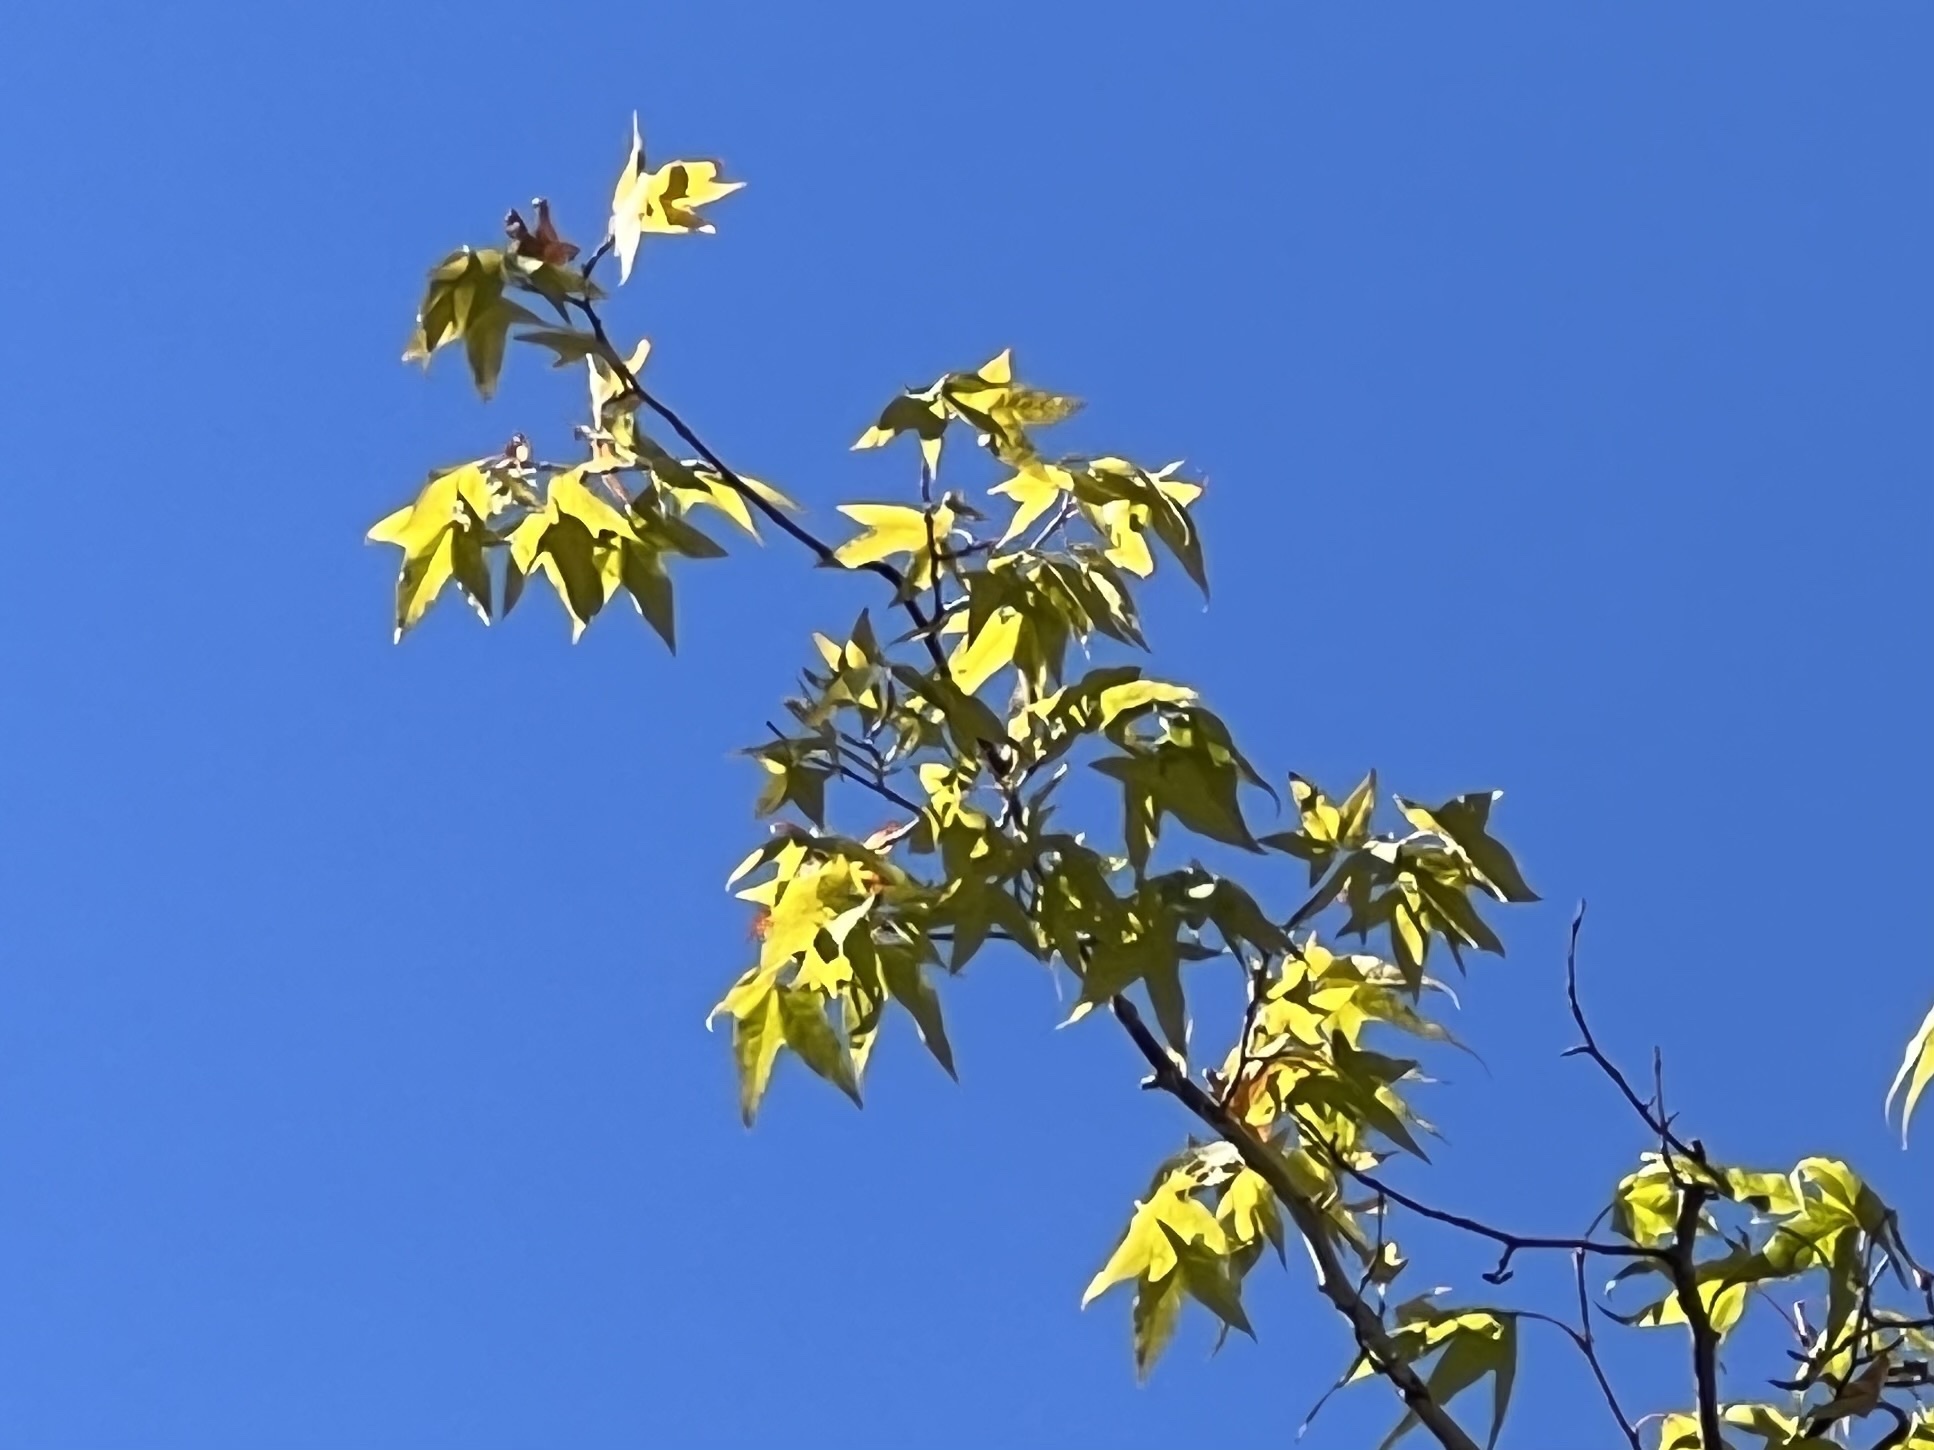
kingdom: Plantae
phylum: Tracheophyta
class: Magnoliopsida
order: Proteales
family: Platanaceae
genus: Platanus
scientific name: Platanus wrightii
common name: Arizona sycamore
